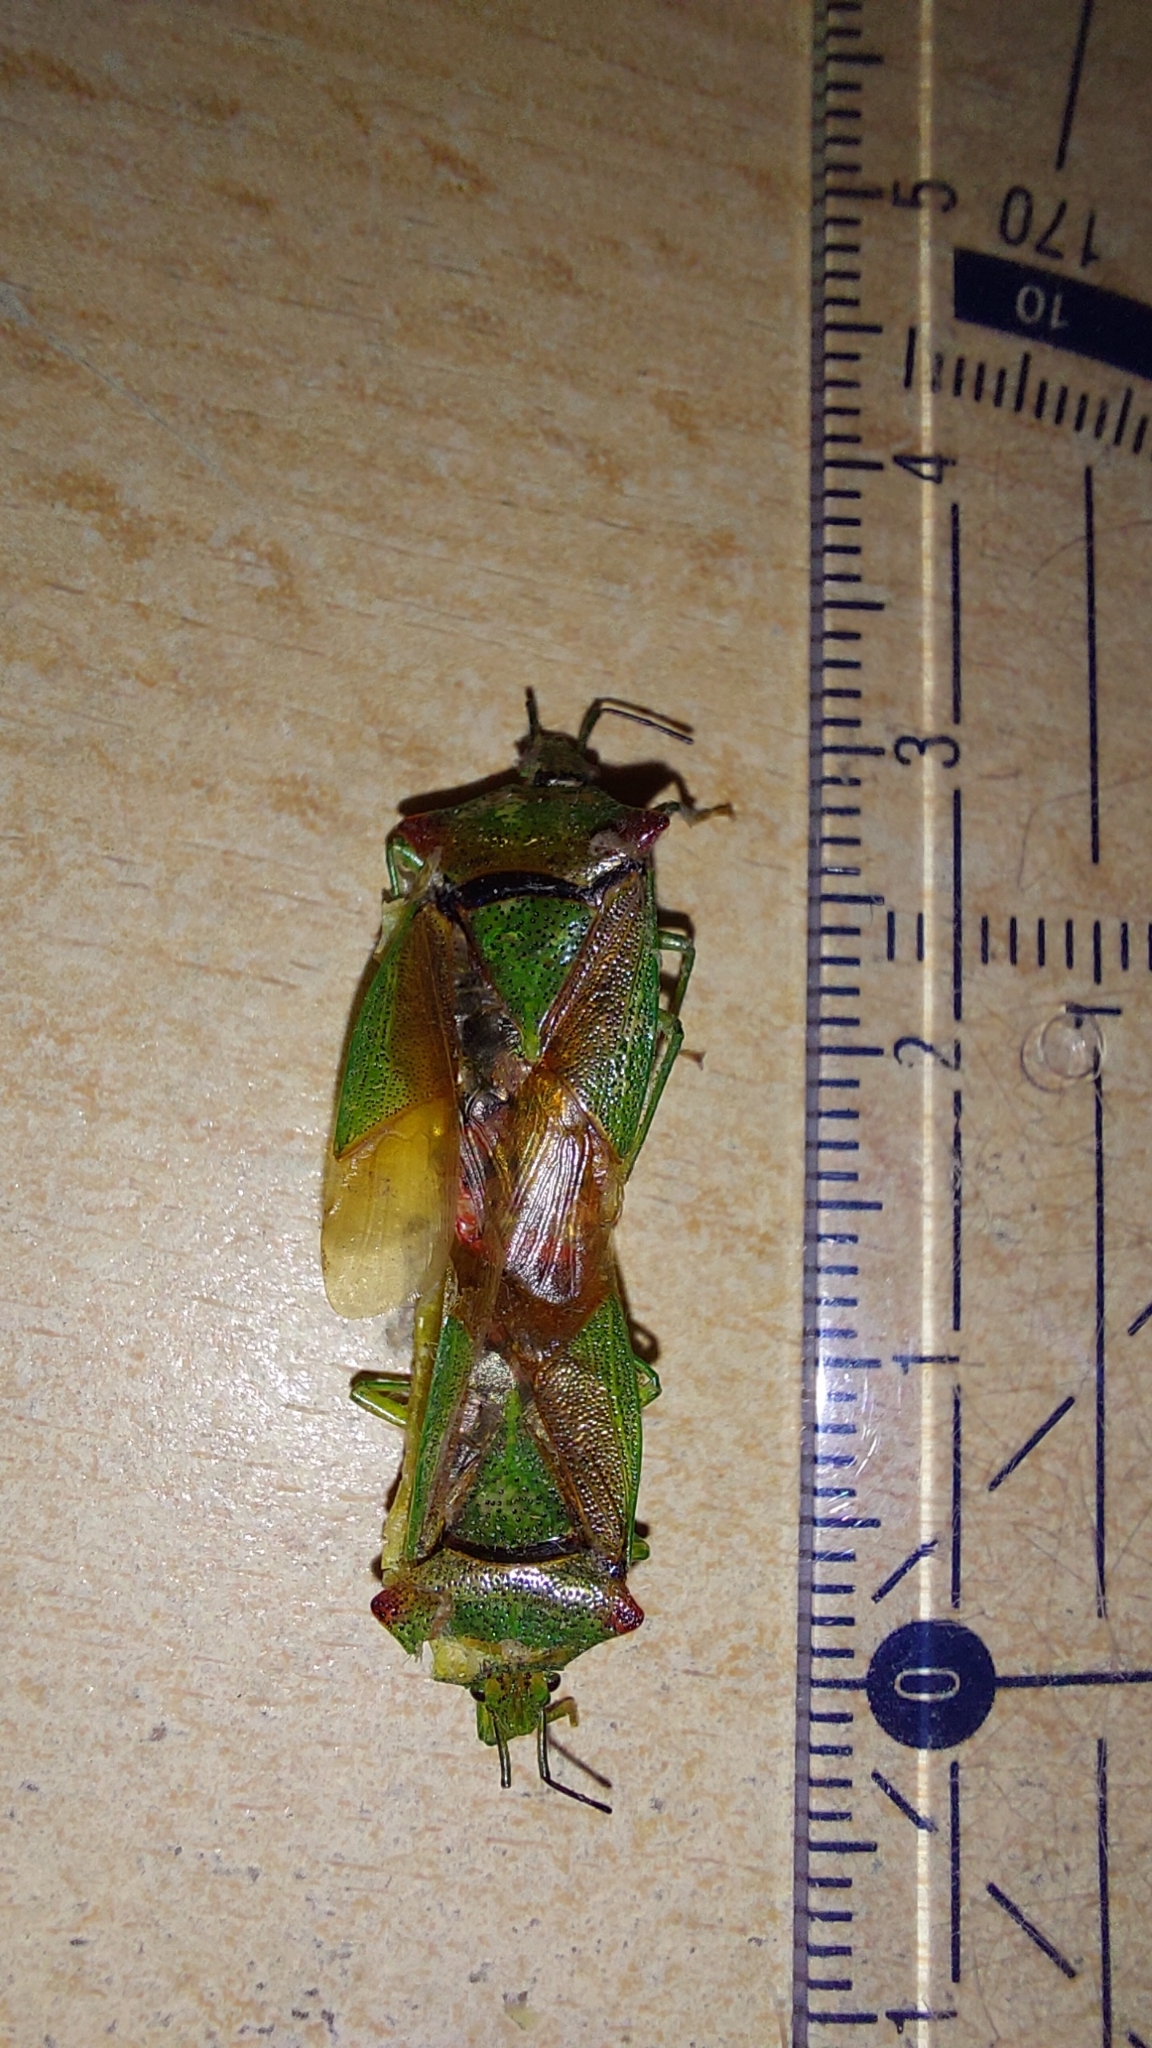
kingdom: Animalia
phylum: Arthropoda
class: Insecta
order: Hemiptera
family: Acanthosomatidae
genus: Acanthosoma
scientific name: Acanthosoma haemorrhoidale
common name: Hawthorn shieldbug
